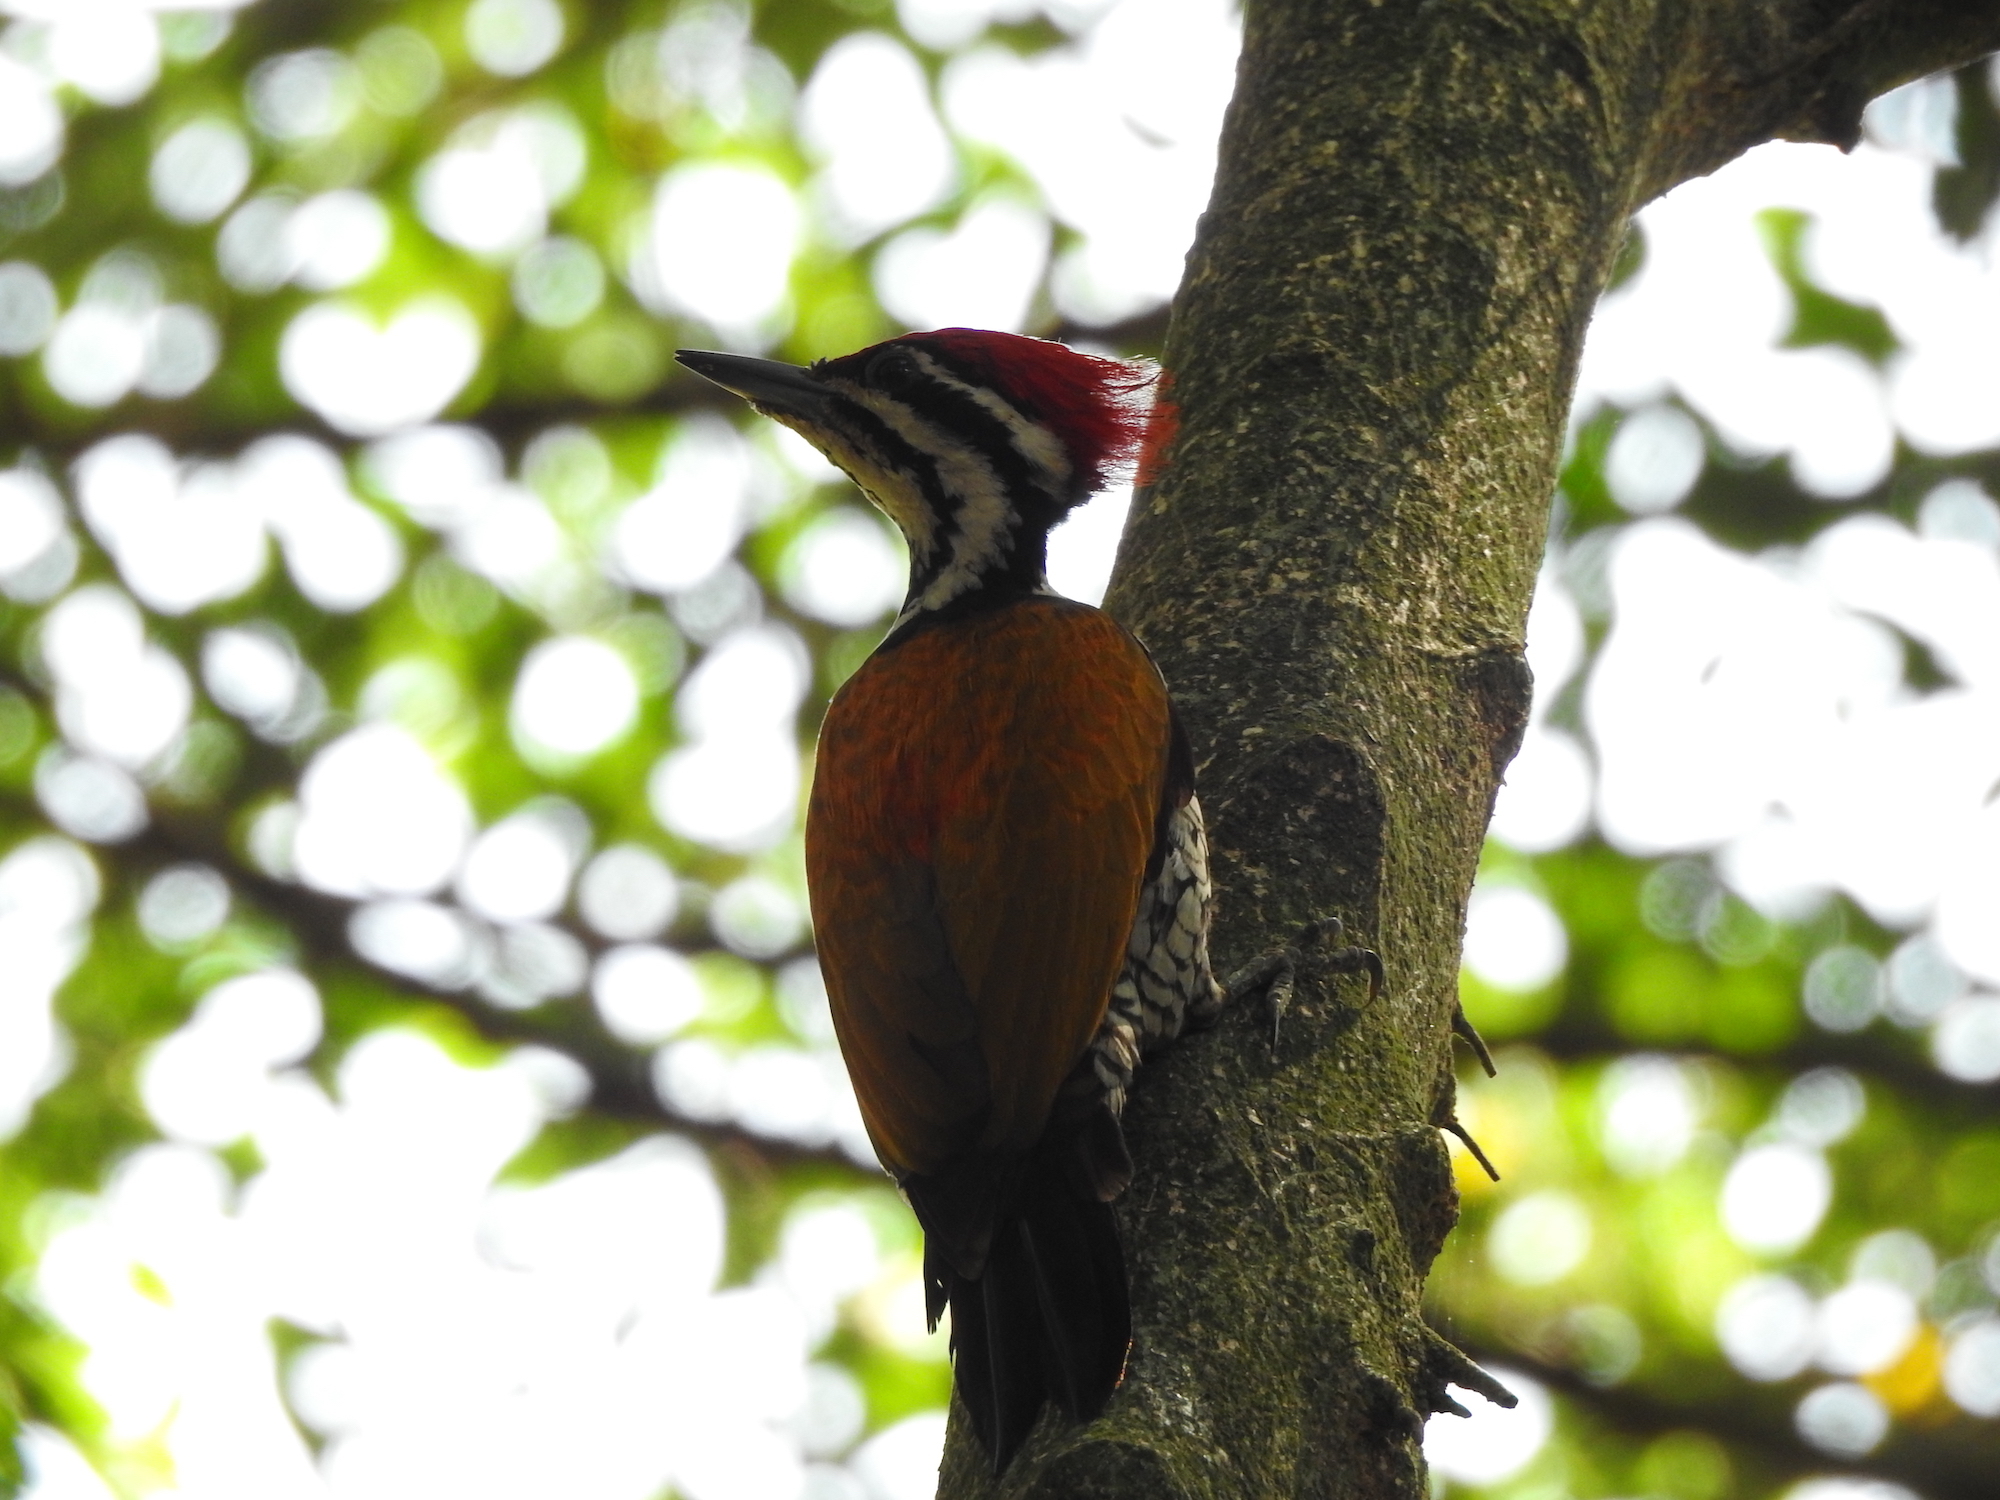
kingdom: Animalia
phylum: Chordata
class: Aves
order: Piciformes
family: Picidae
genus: Dinopium
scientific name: Dinopium javanense
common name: Common flameback
